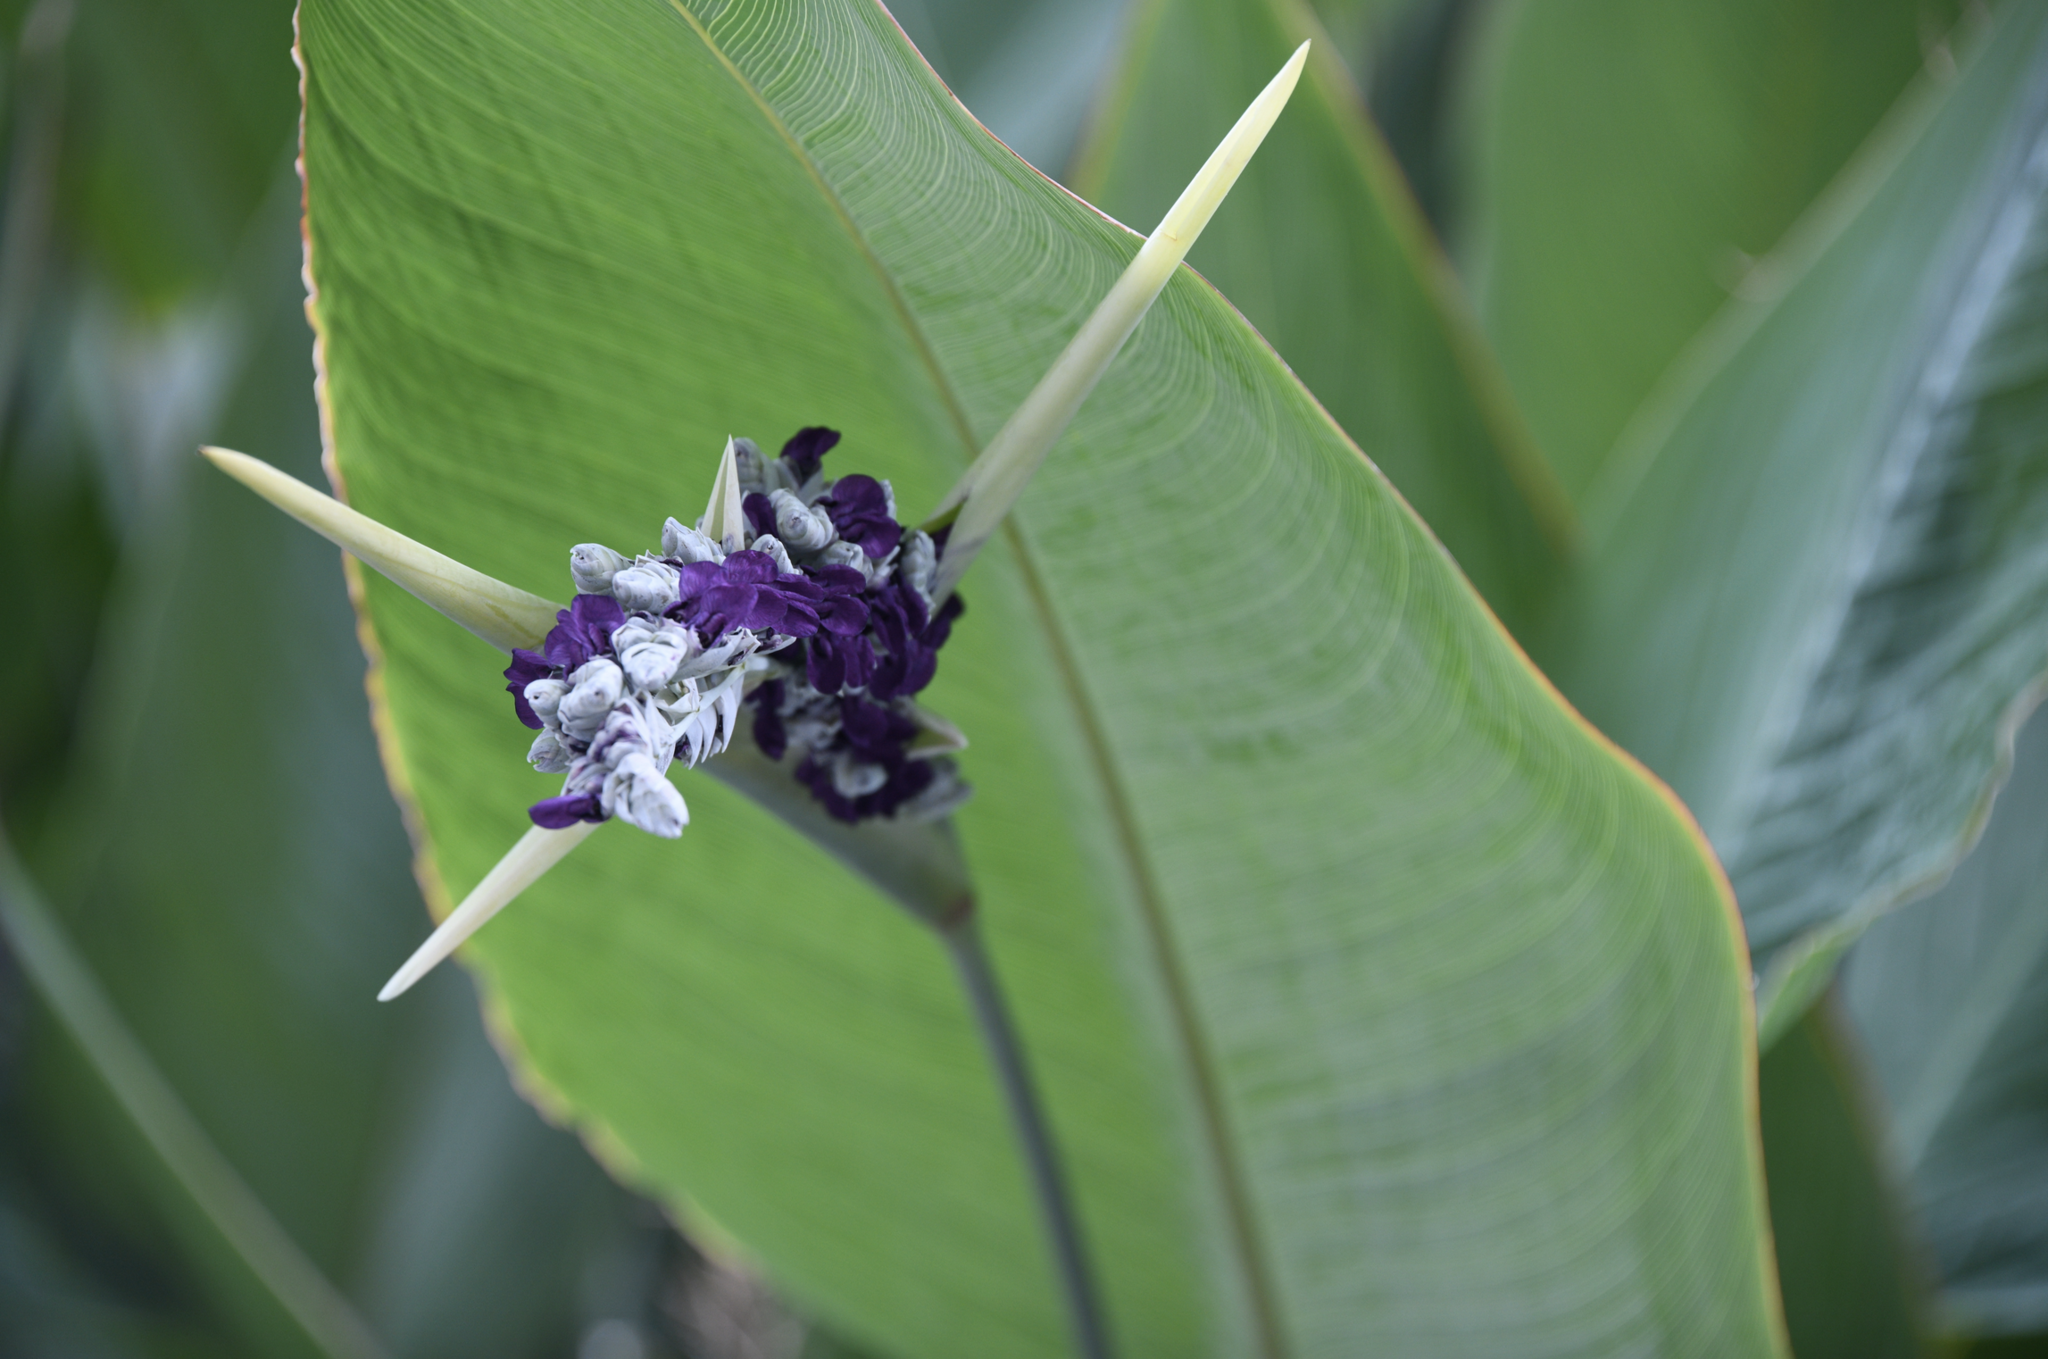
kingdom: Plantae
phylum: Tracheophyta
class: Liliopsida
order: Zingiberales
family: Marantaceae
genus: Thalia
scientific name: Thalia dealbata
